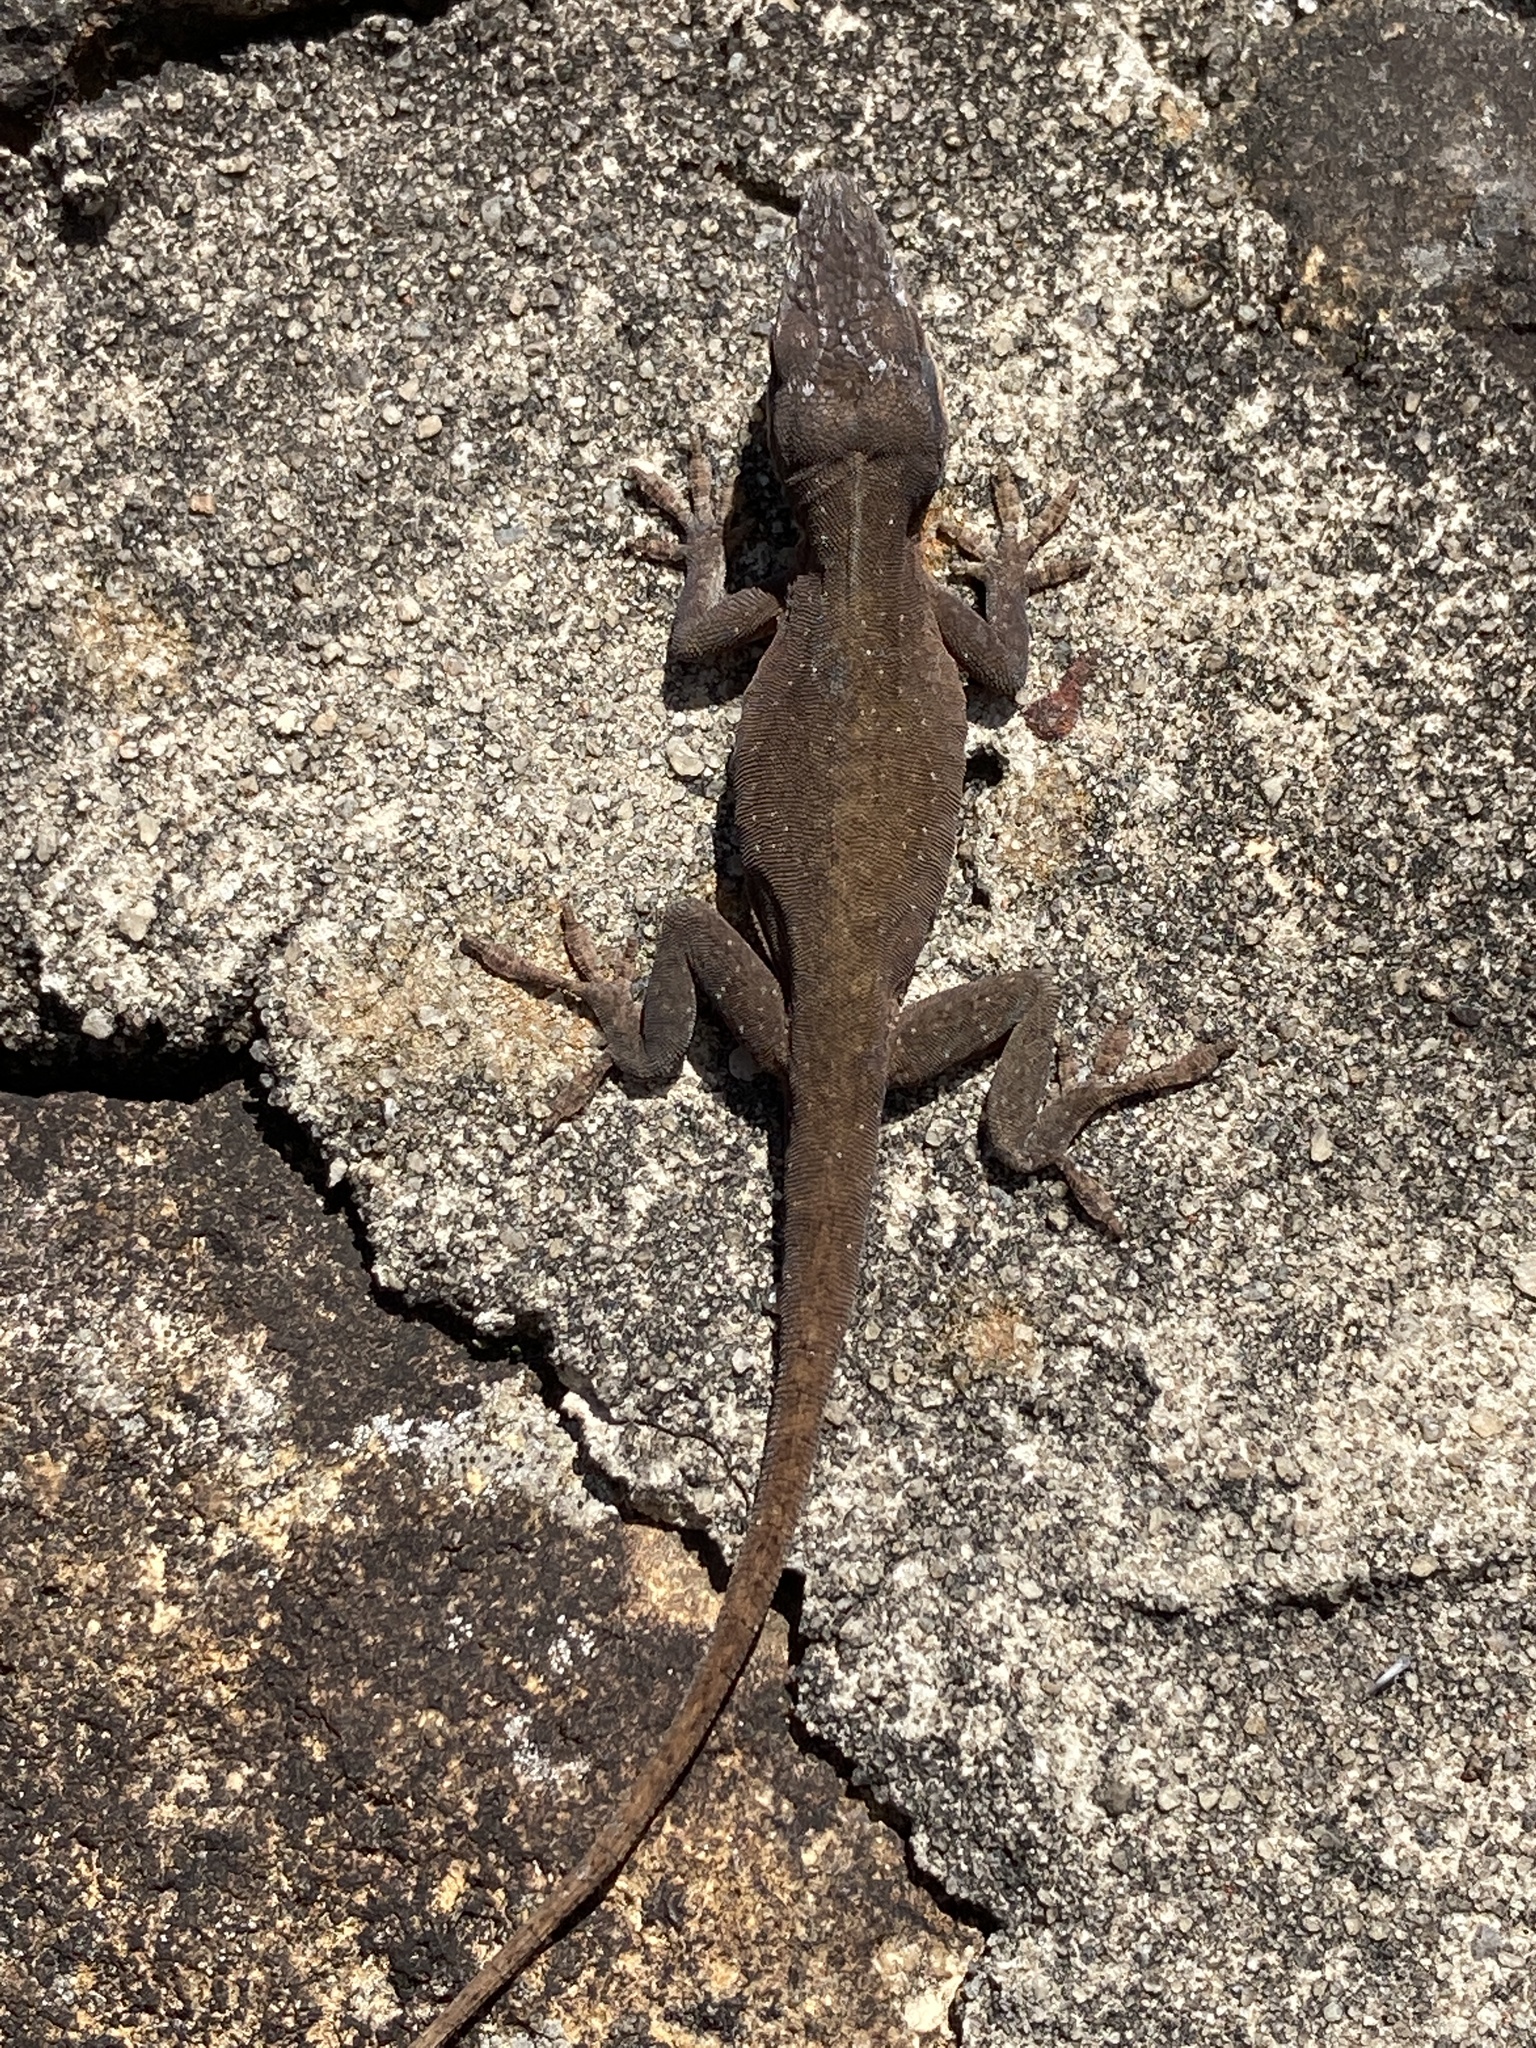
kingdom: Animalia
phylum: Chordata
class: Squamata
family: Dactyloidae
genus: Anolis
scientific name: Anolis carolinensis
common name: Green anole
